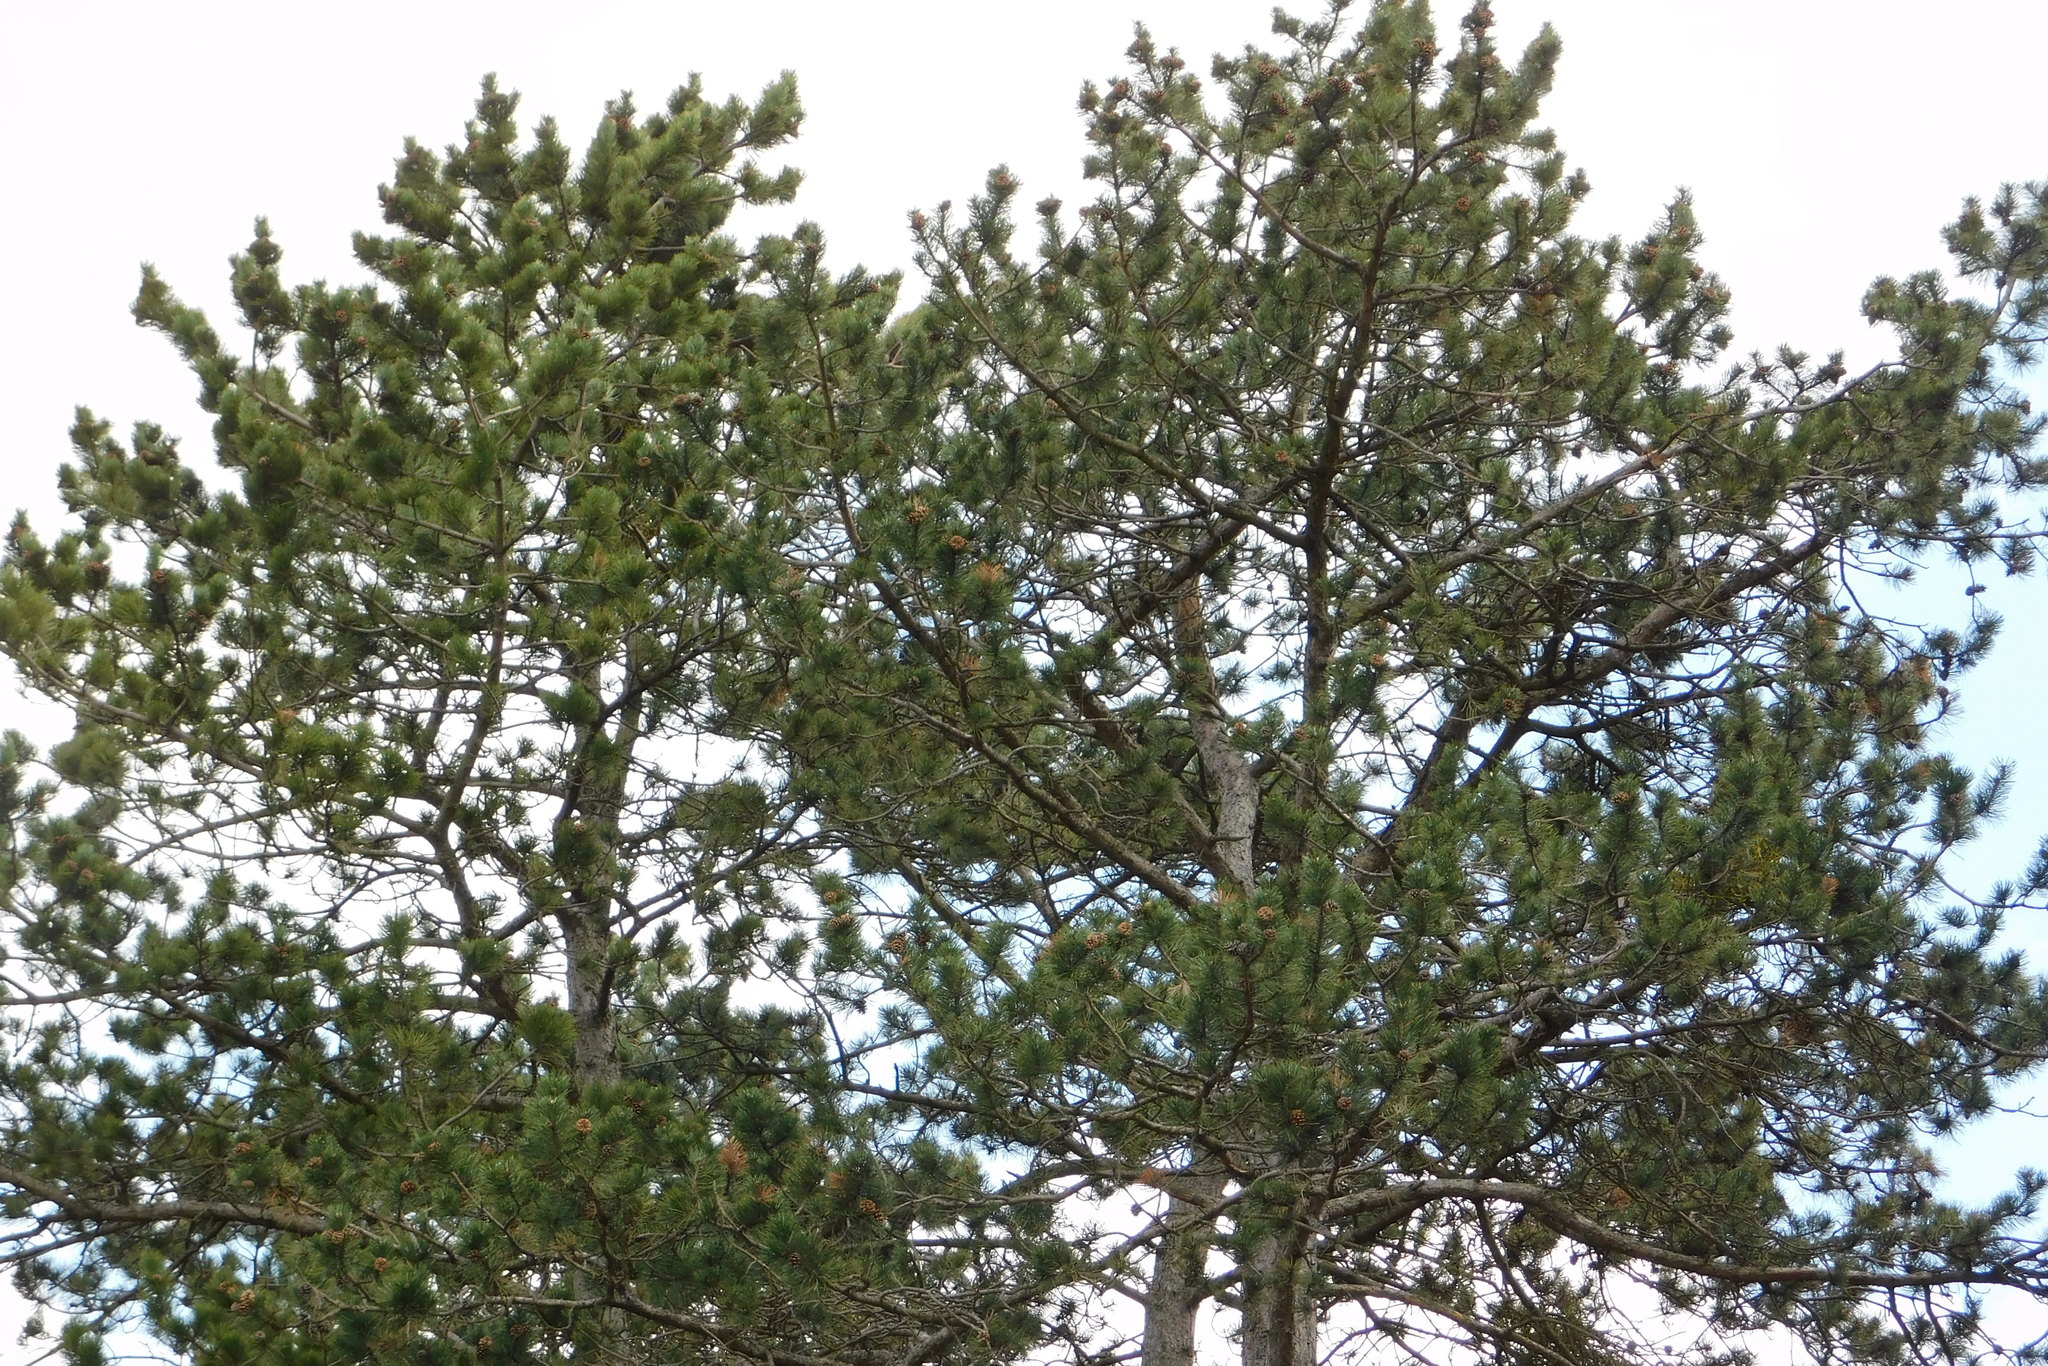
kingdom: Plantae
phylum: Tracheophyta
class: Pinopsida
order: Pinales
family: Pinaceae
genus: Pinus
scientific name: Pinus nigra
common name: Austrian pine
